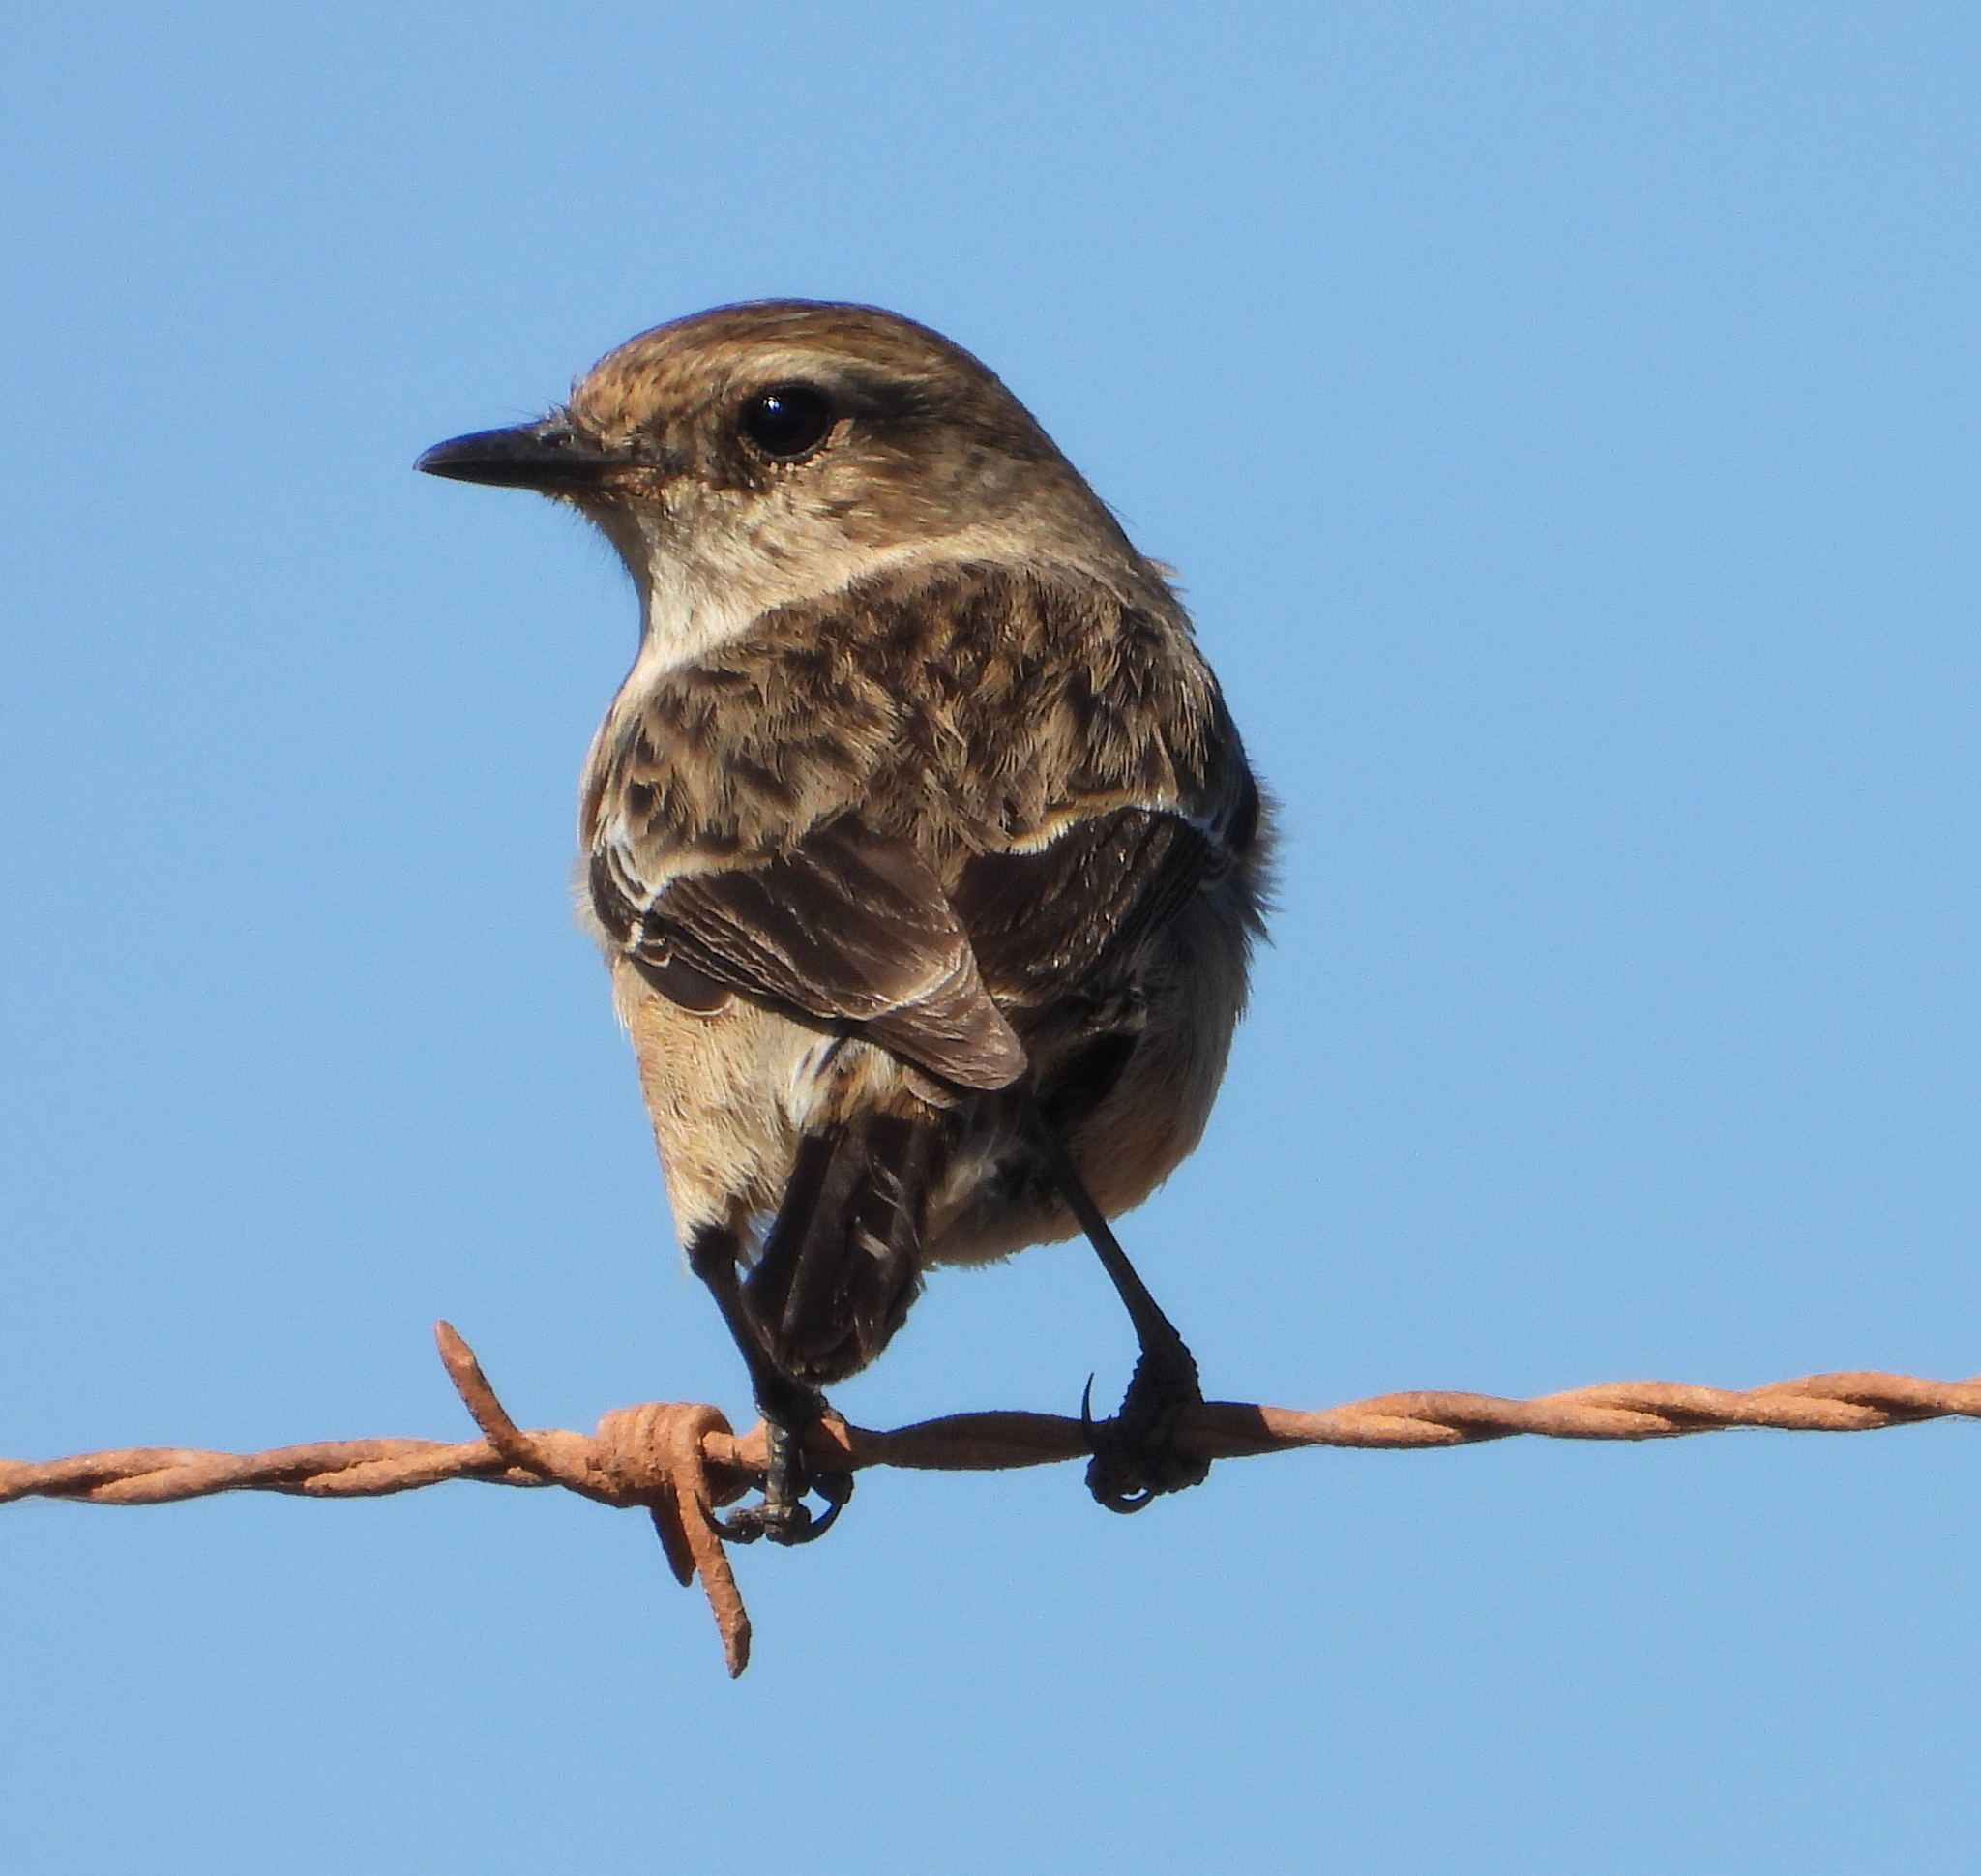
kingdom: Animalia
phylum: Chordata
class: Aves
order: Passeriformes
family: Muscicapidae
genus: Saxicola
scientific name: Saxicola torquatus
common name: African stonechat
